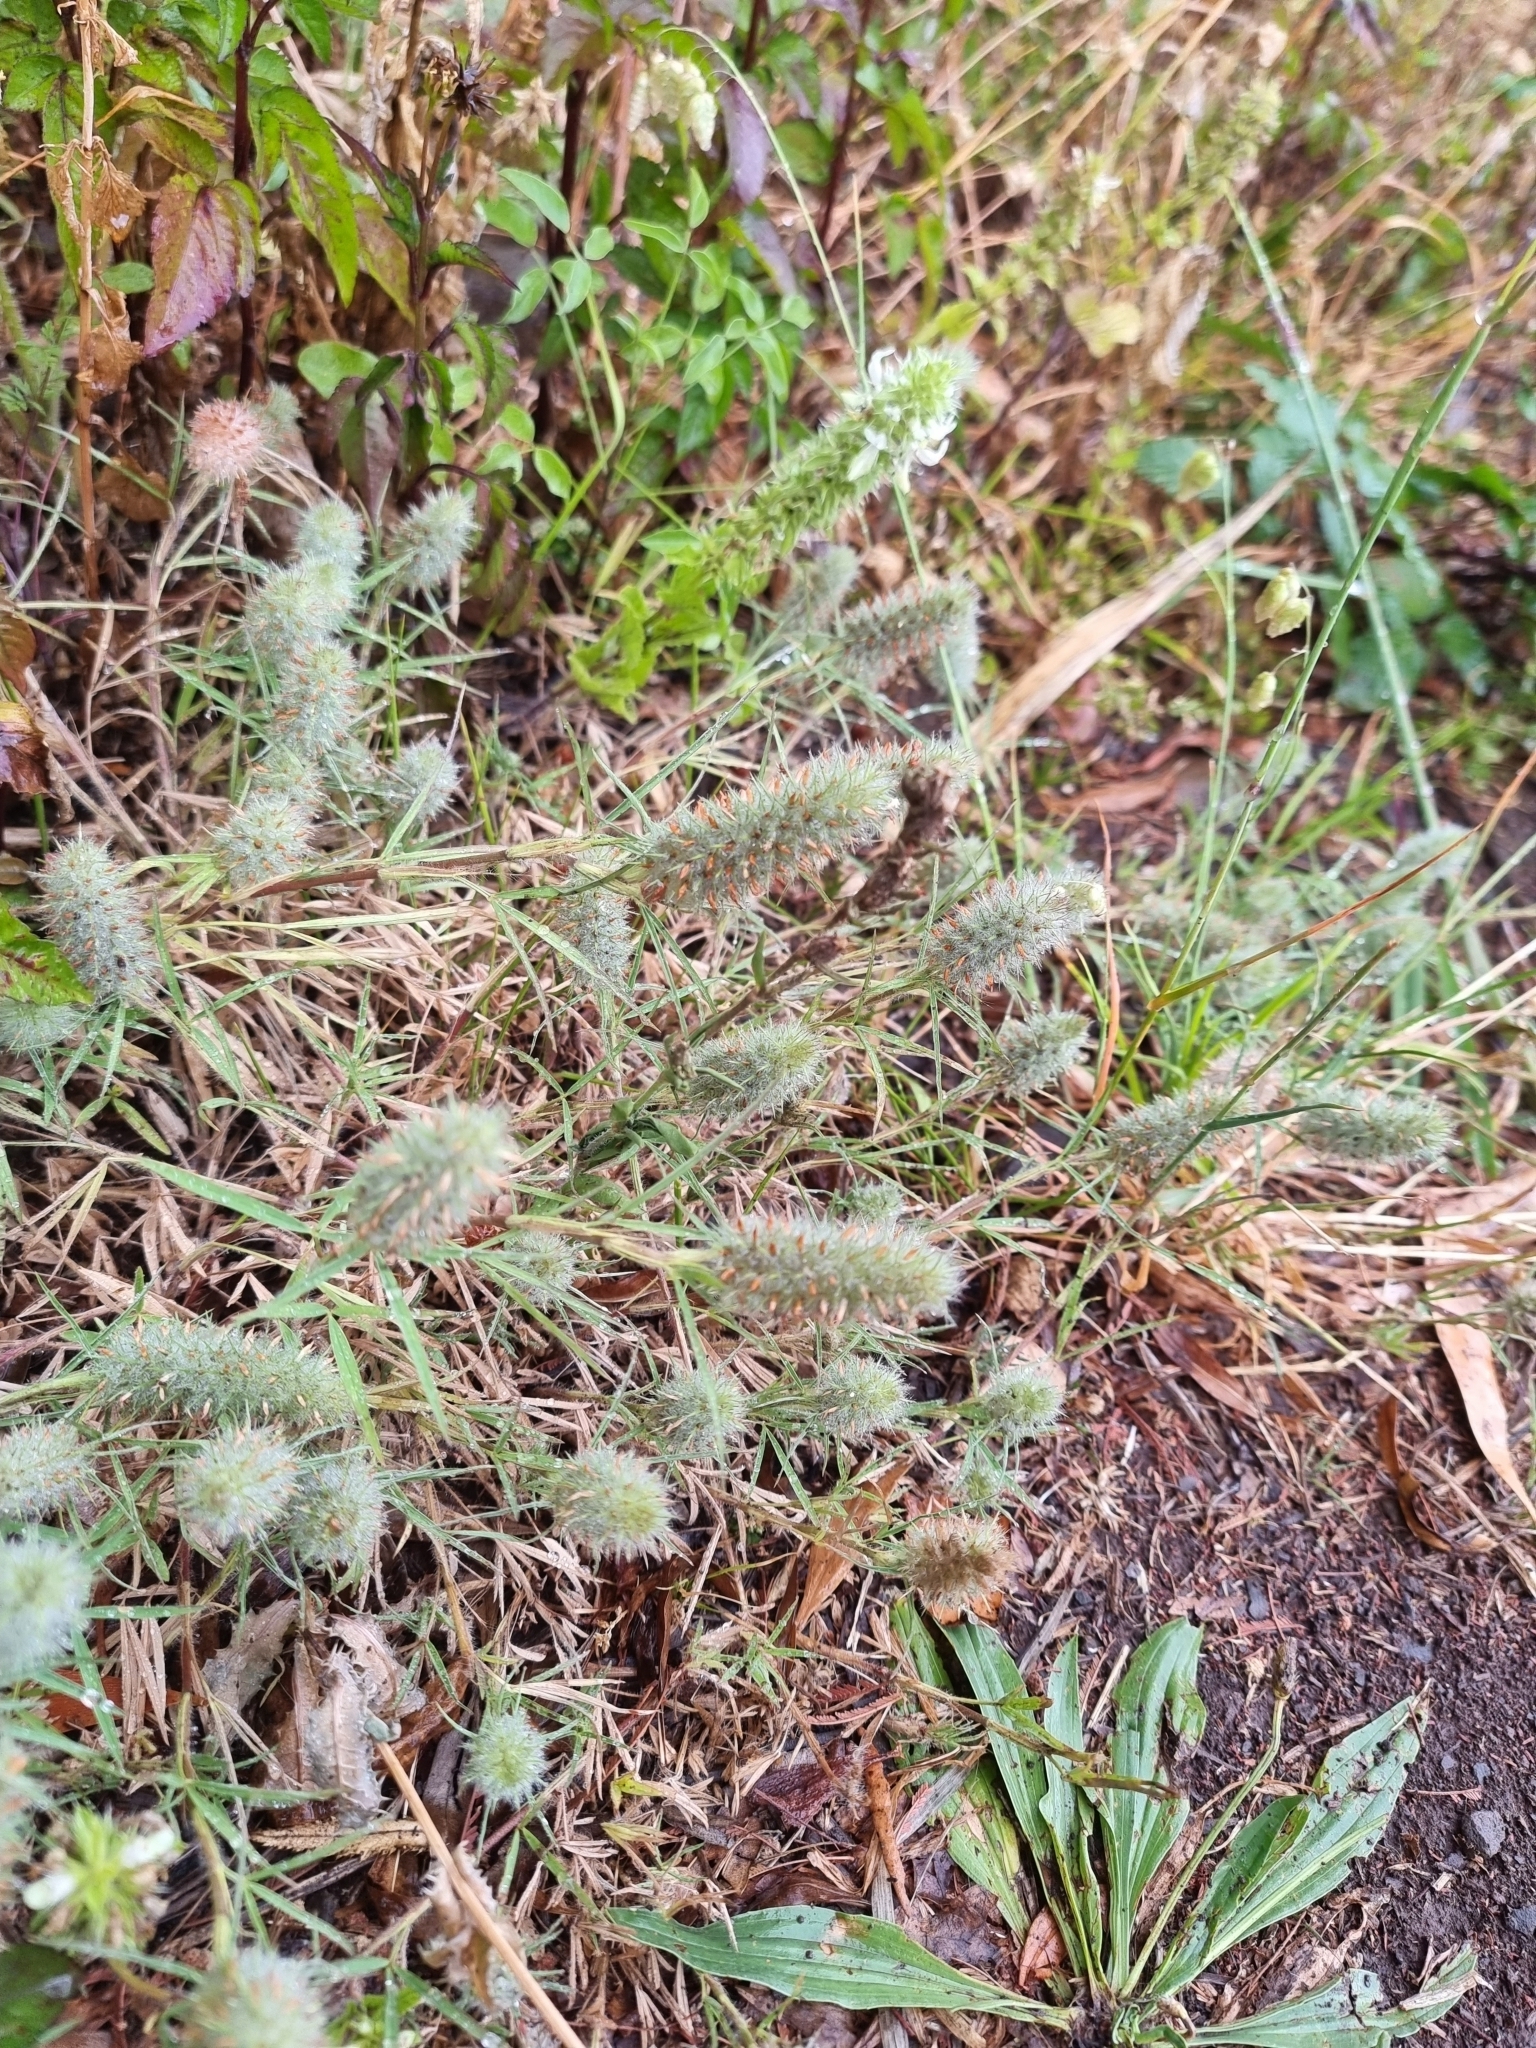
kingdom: Plantae
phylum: Tracheophyta
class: Magnoliopsida
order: Fabales
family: Fabaceae
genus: Trifolium
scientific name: Trifolium angustifolium
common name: Narrow clover
